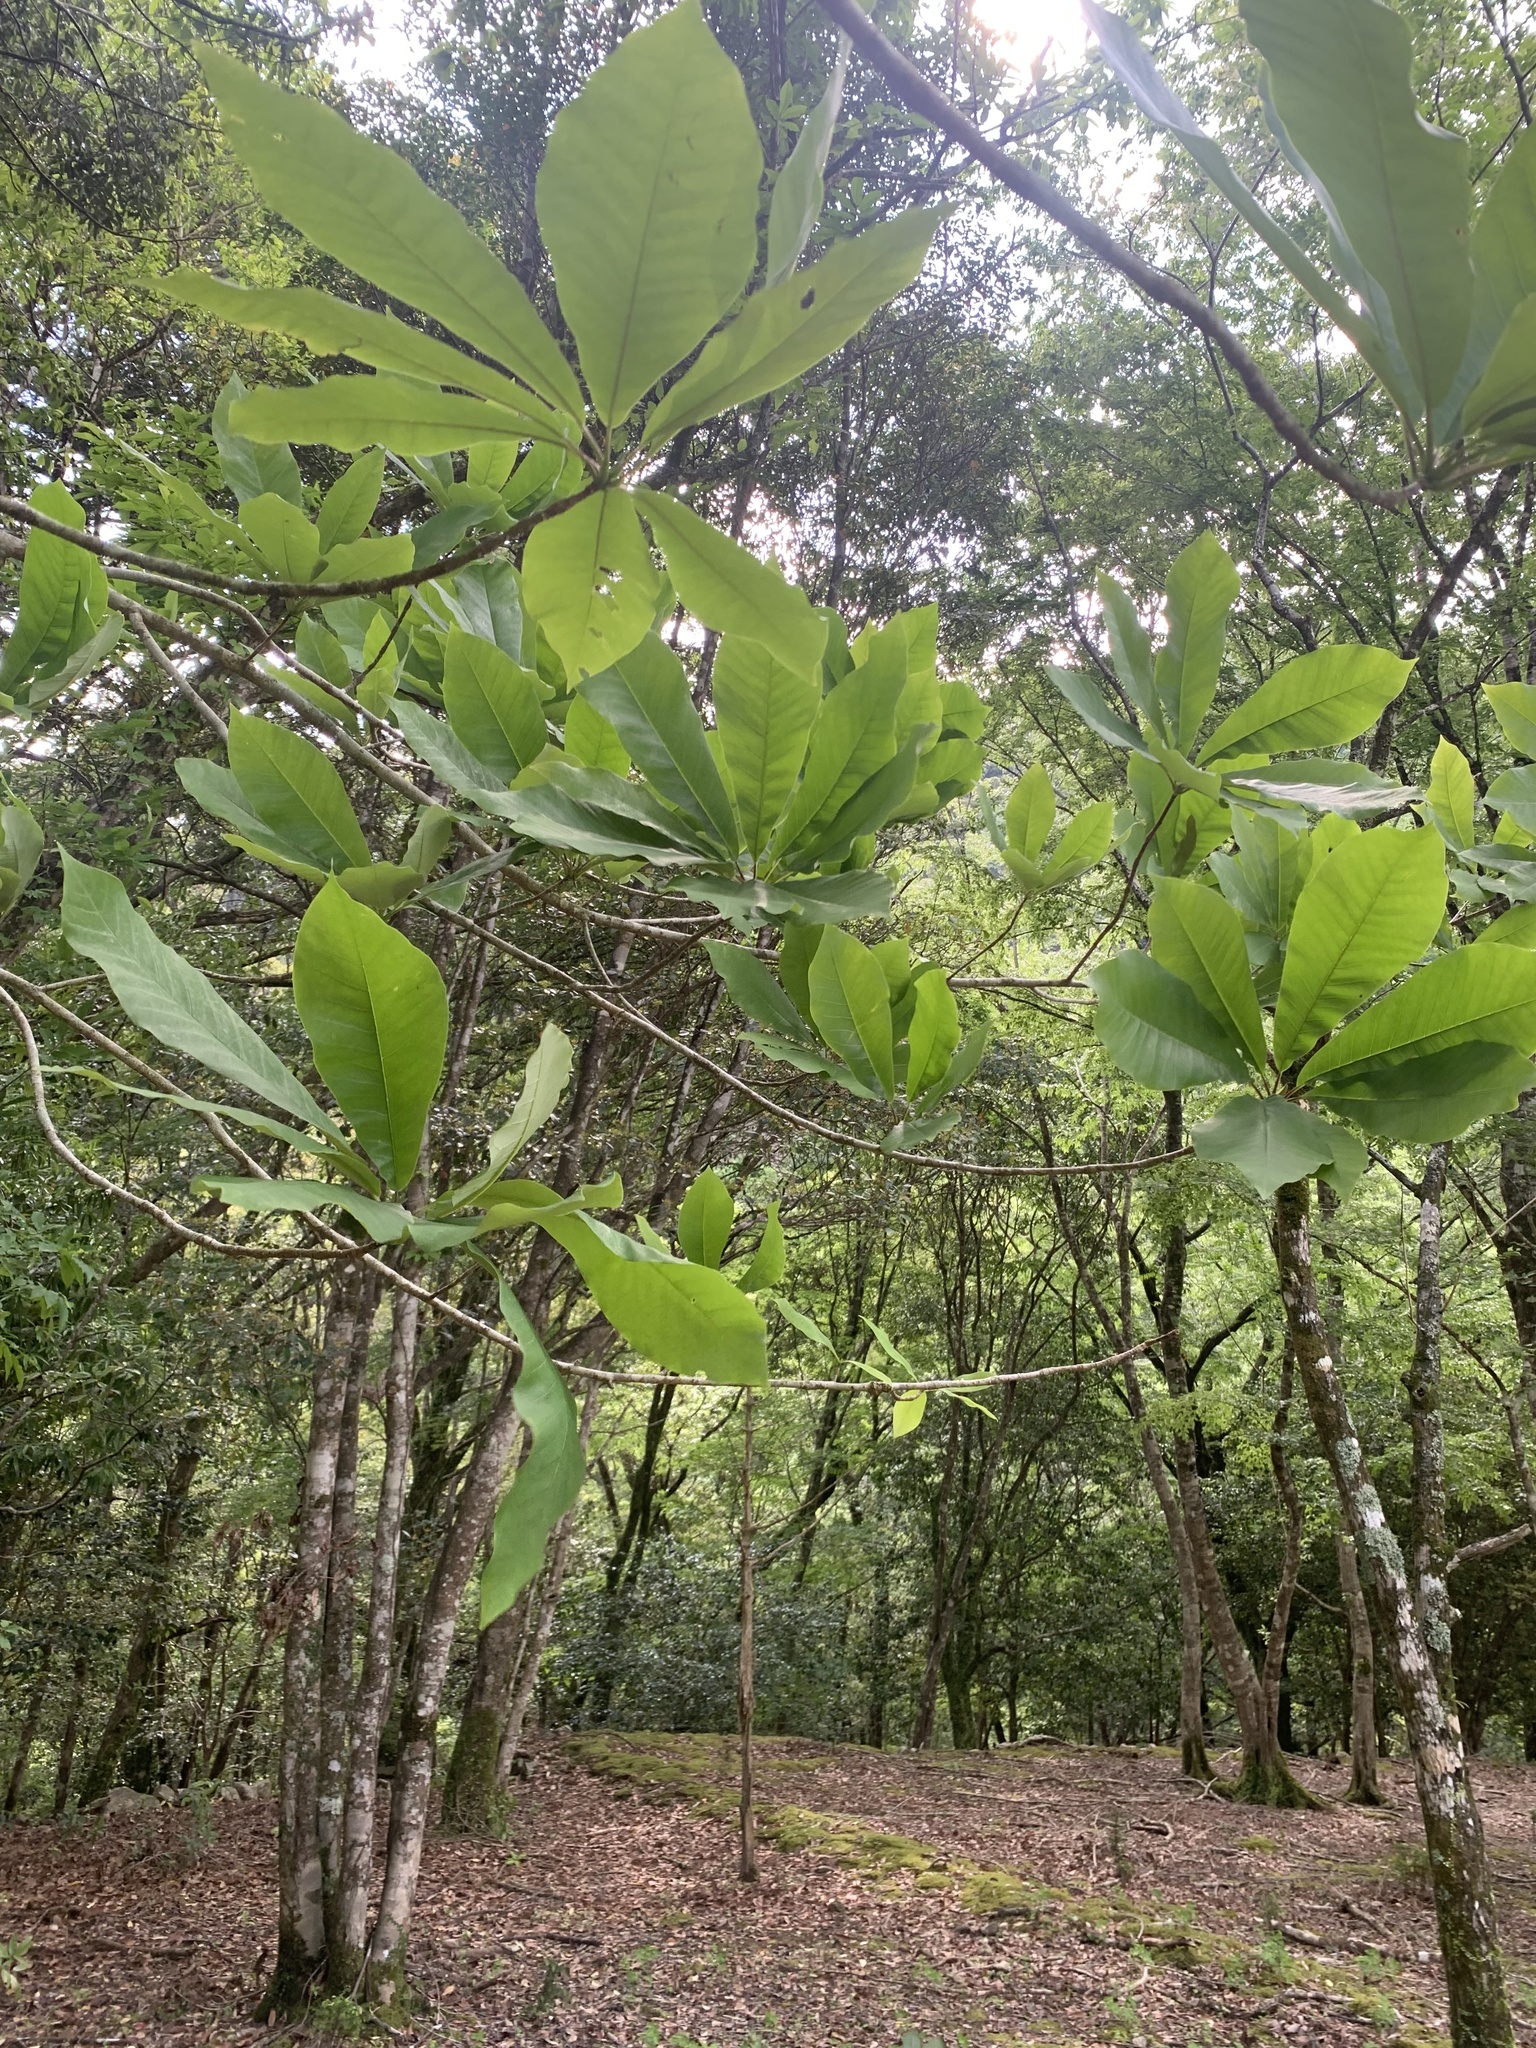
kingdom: Plantae
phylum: Tracheophyta
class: Magnoliopsida
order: Magnoliales
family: Magnoliaceae
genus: Magnolia
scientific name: Magnolia obovata
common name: Japanese whitebark magnolia
